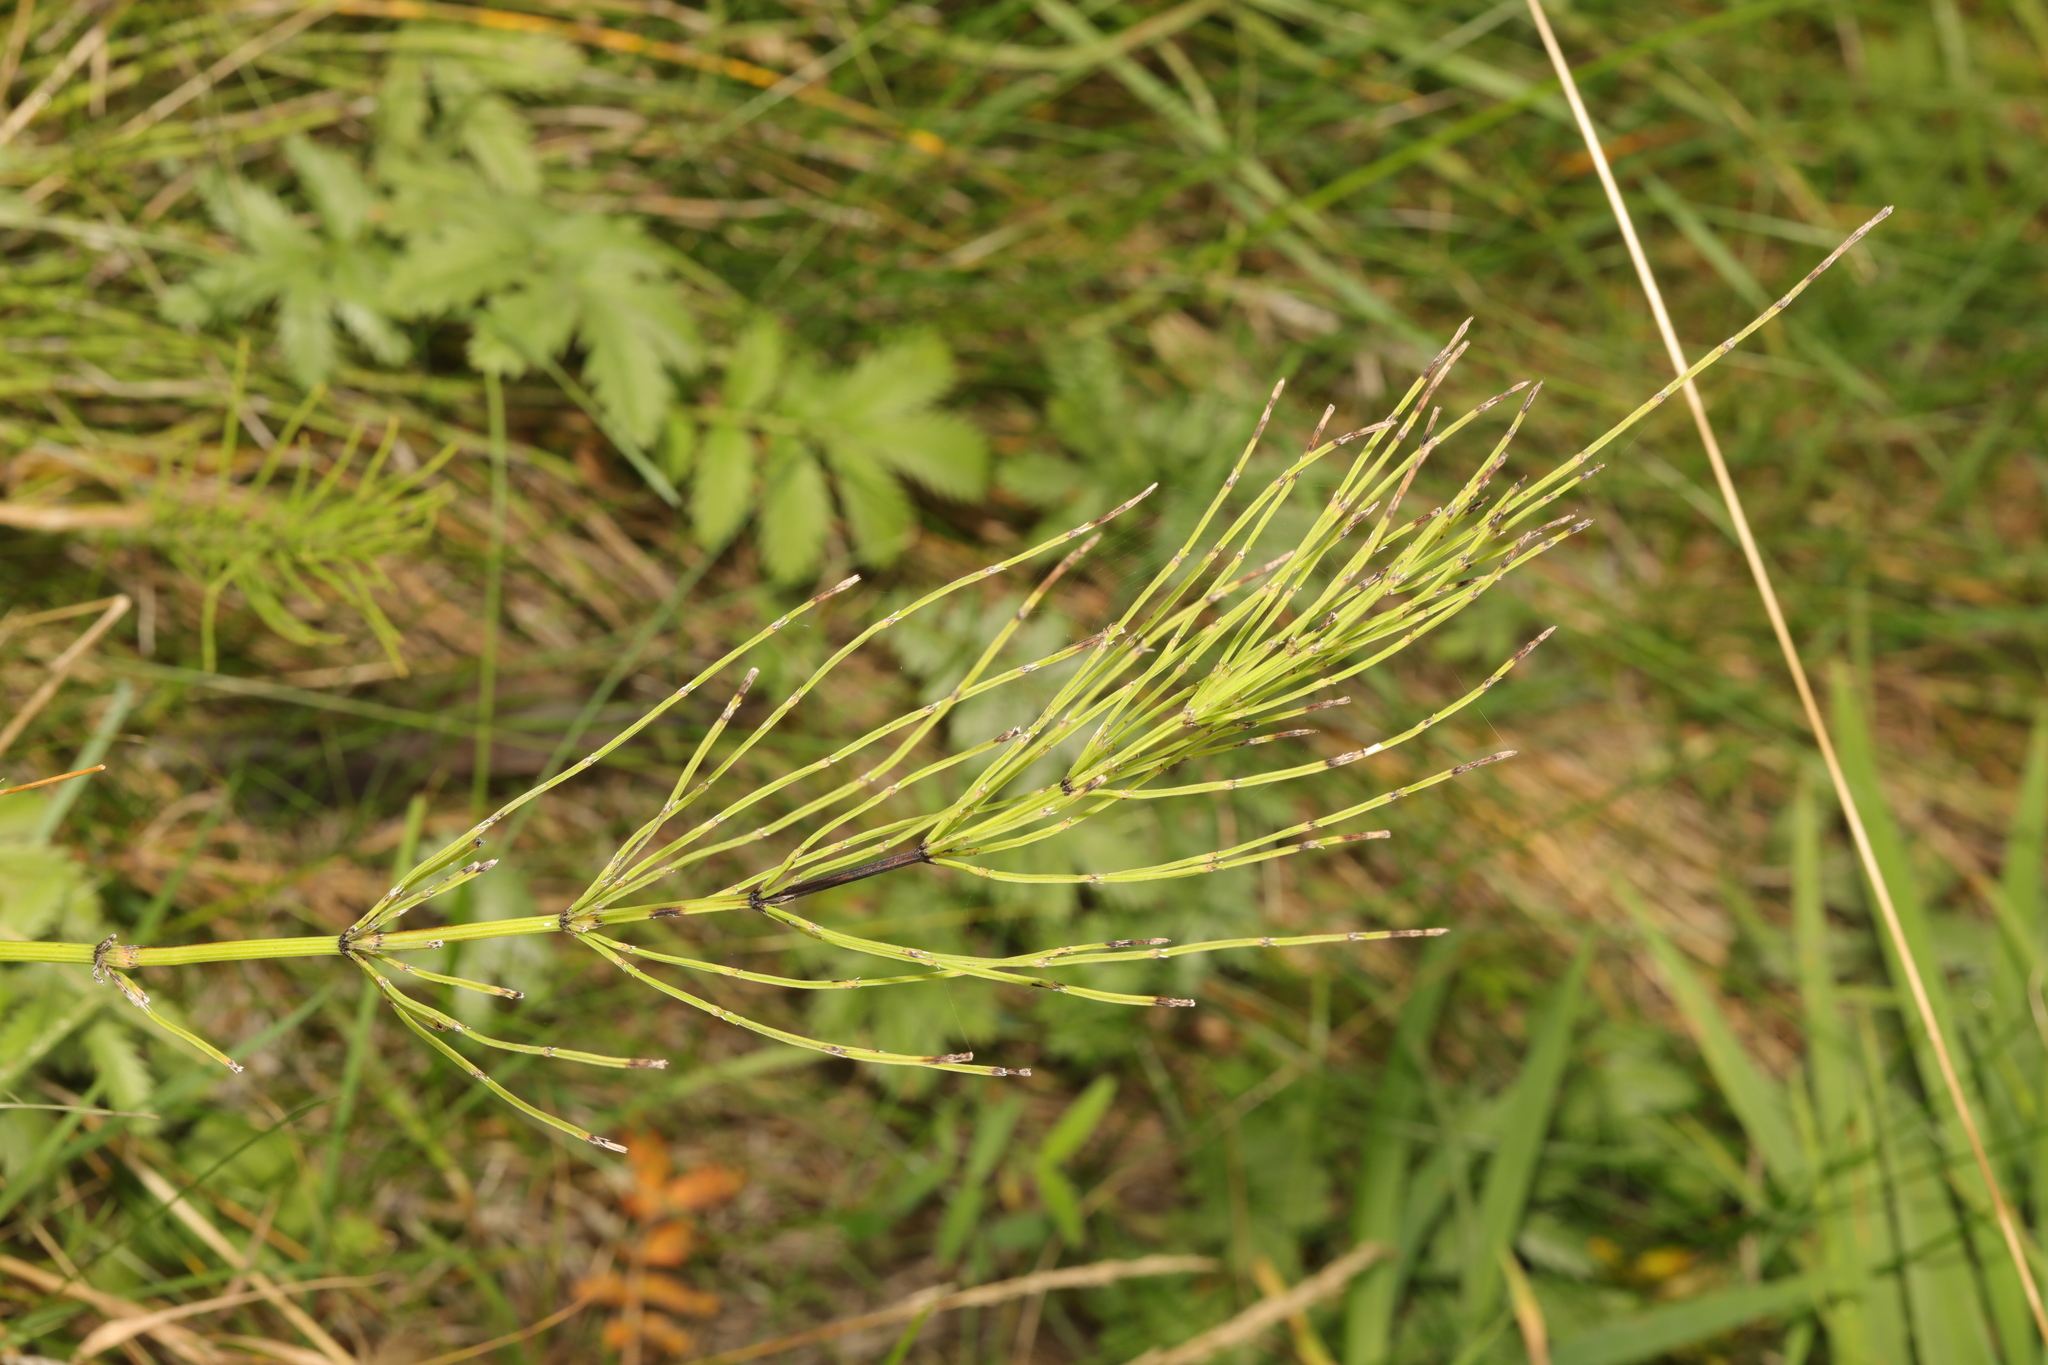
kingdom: Plantae
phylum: Tracheophyta
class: Polypodiopsida
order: Equisetales
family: Equisetaceae
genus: Equisetum
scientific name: Equisetum arvense
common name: Field horsetail
